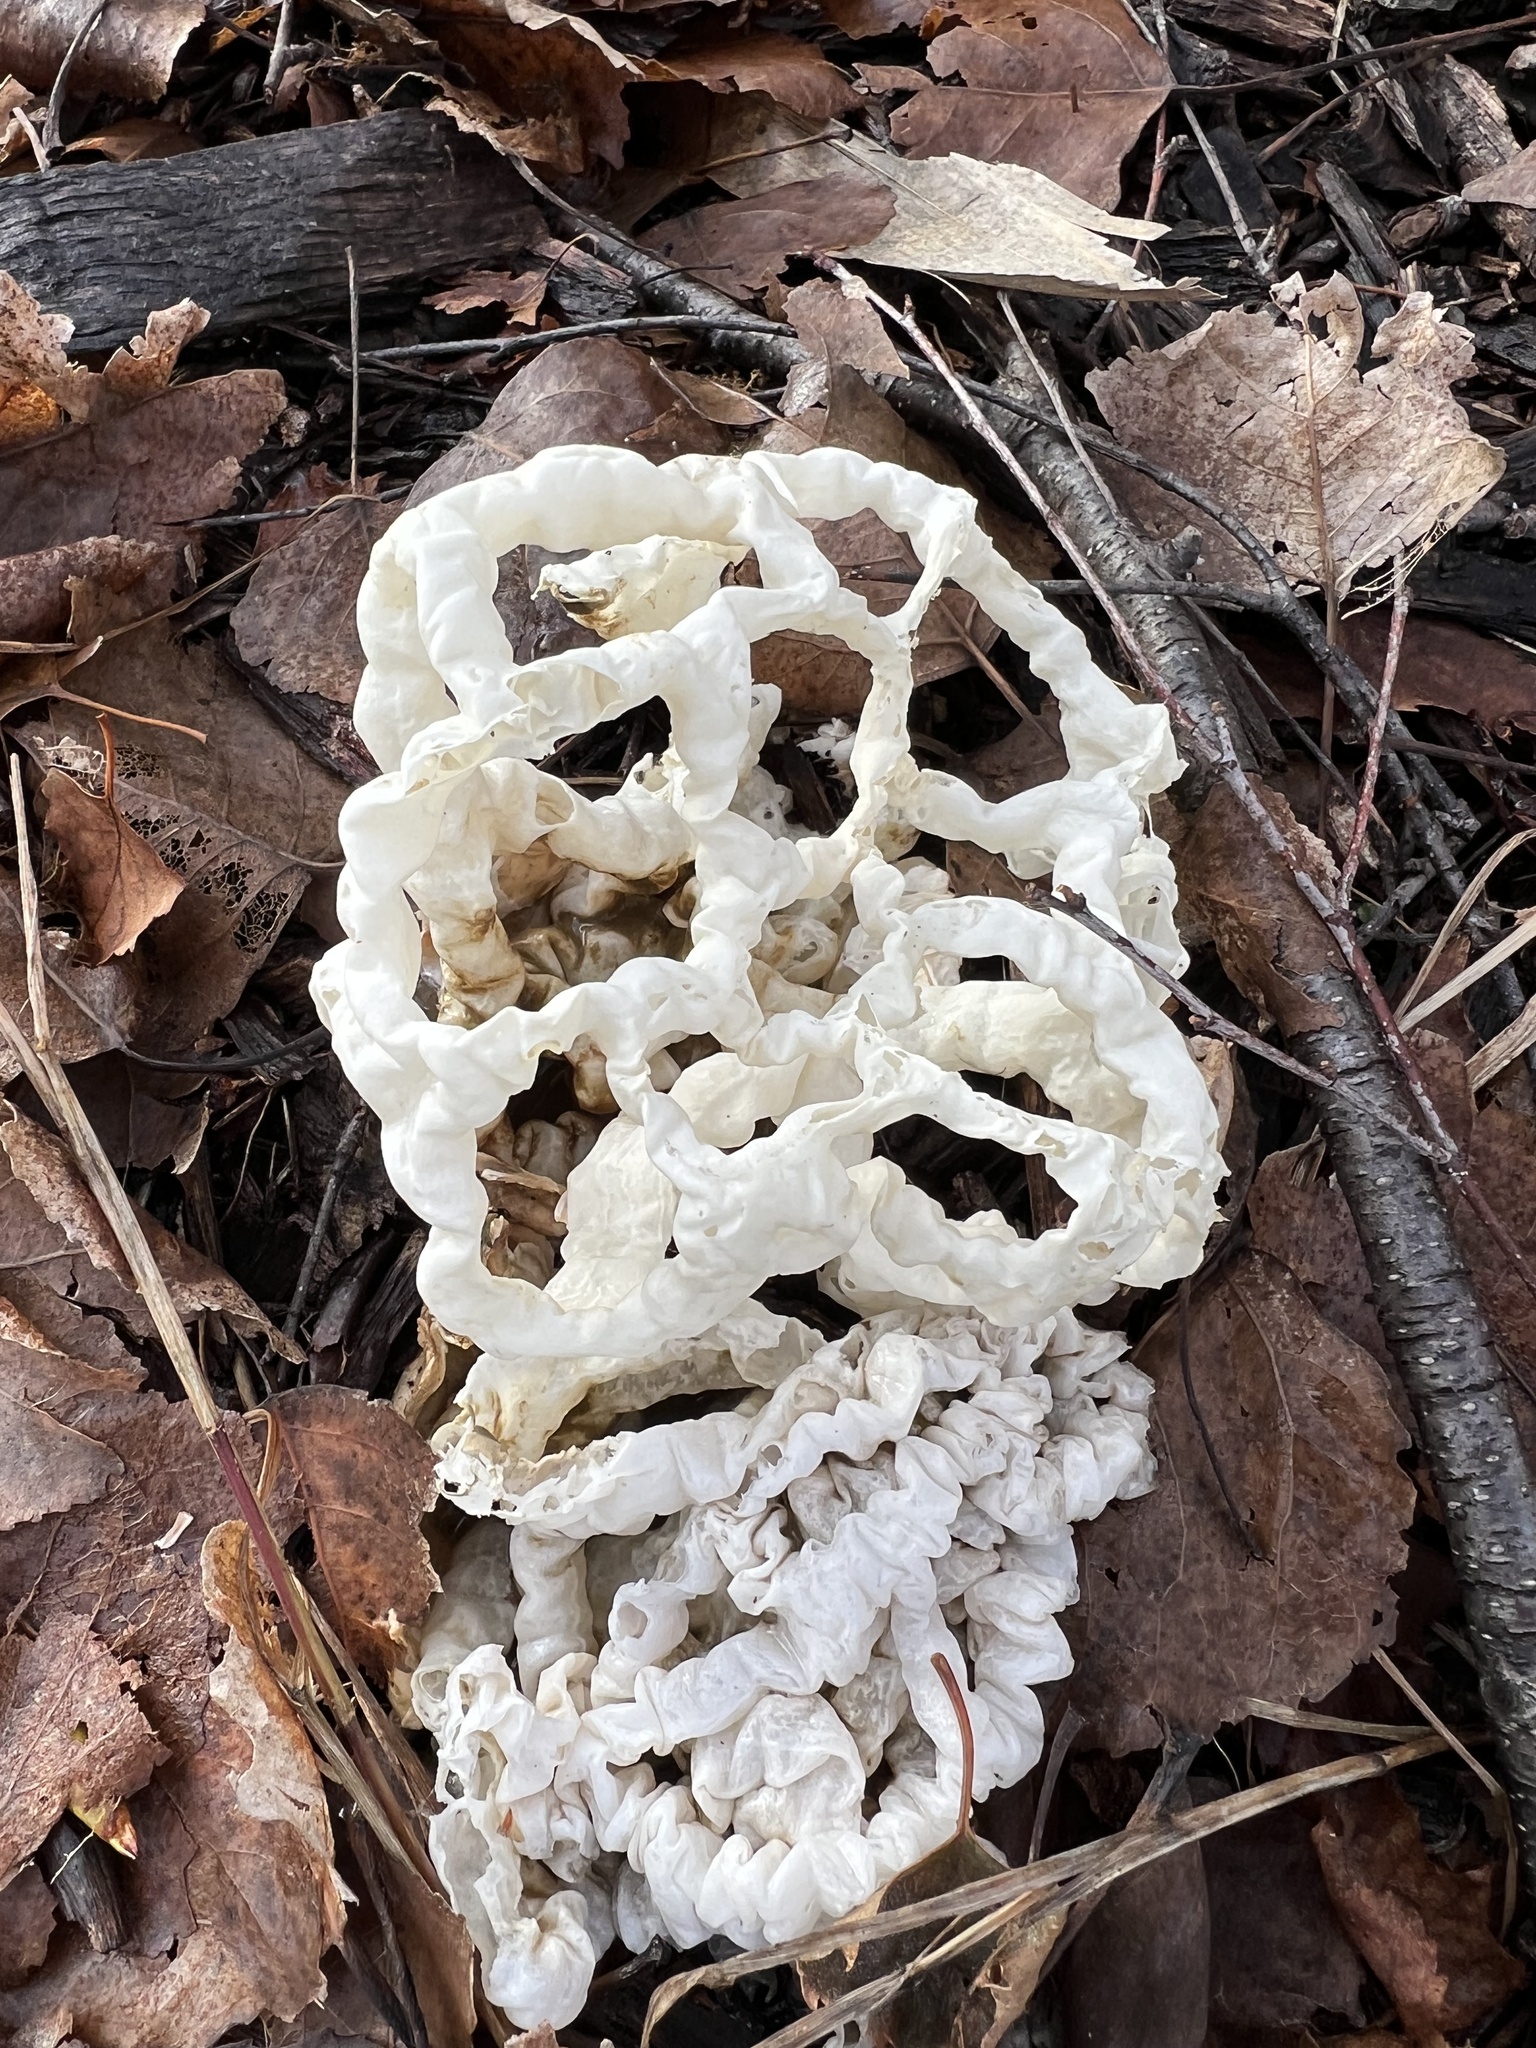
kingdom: Fungi
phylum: Basidiomycota
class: Agaricomycetes
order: Phallales
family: Phallaceae
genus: Ileodictyon
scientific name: Ileodictyon cibarium
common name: Basket fungus
